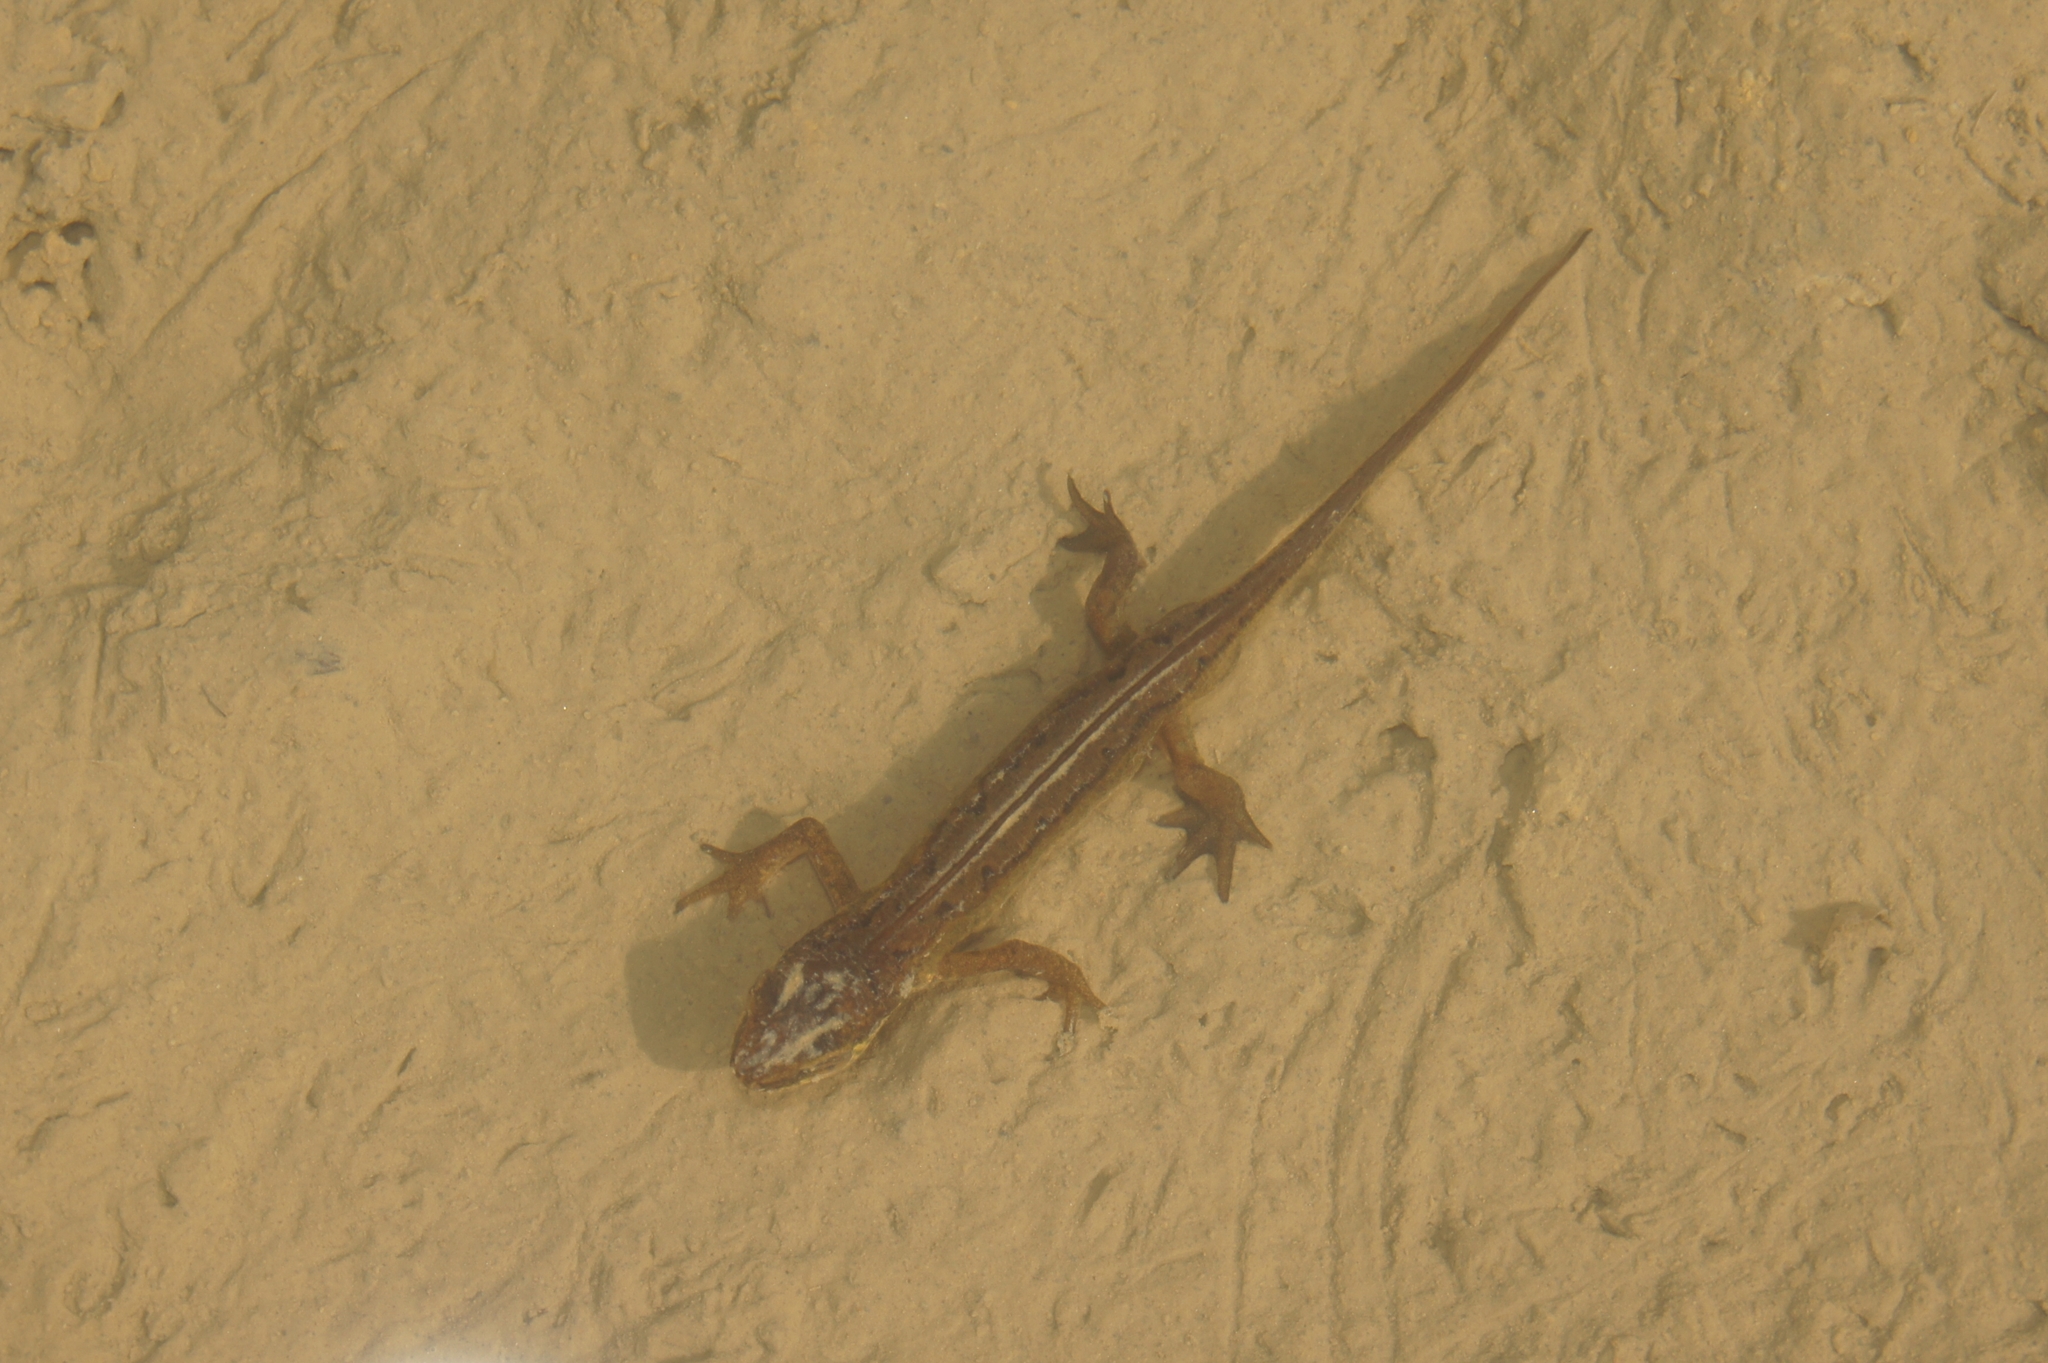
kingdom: Animalia
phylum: Chordata
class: Amphibia
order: Caudata
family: Salamandridae
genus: Lissotriton
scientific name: Lissotriton helveticus
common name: Palmate newt
